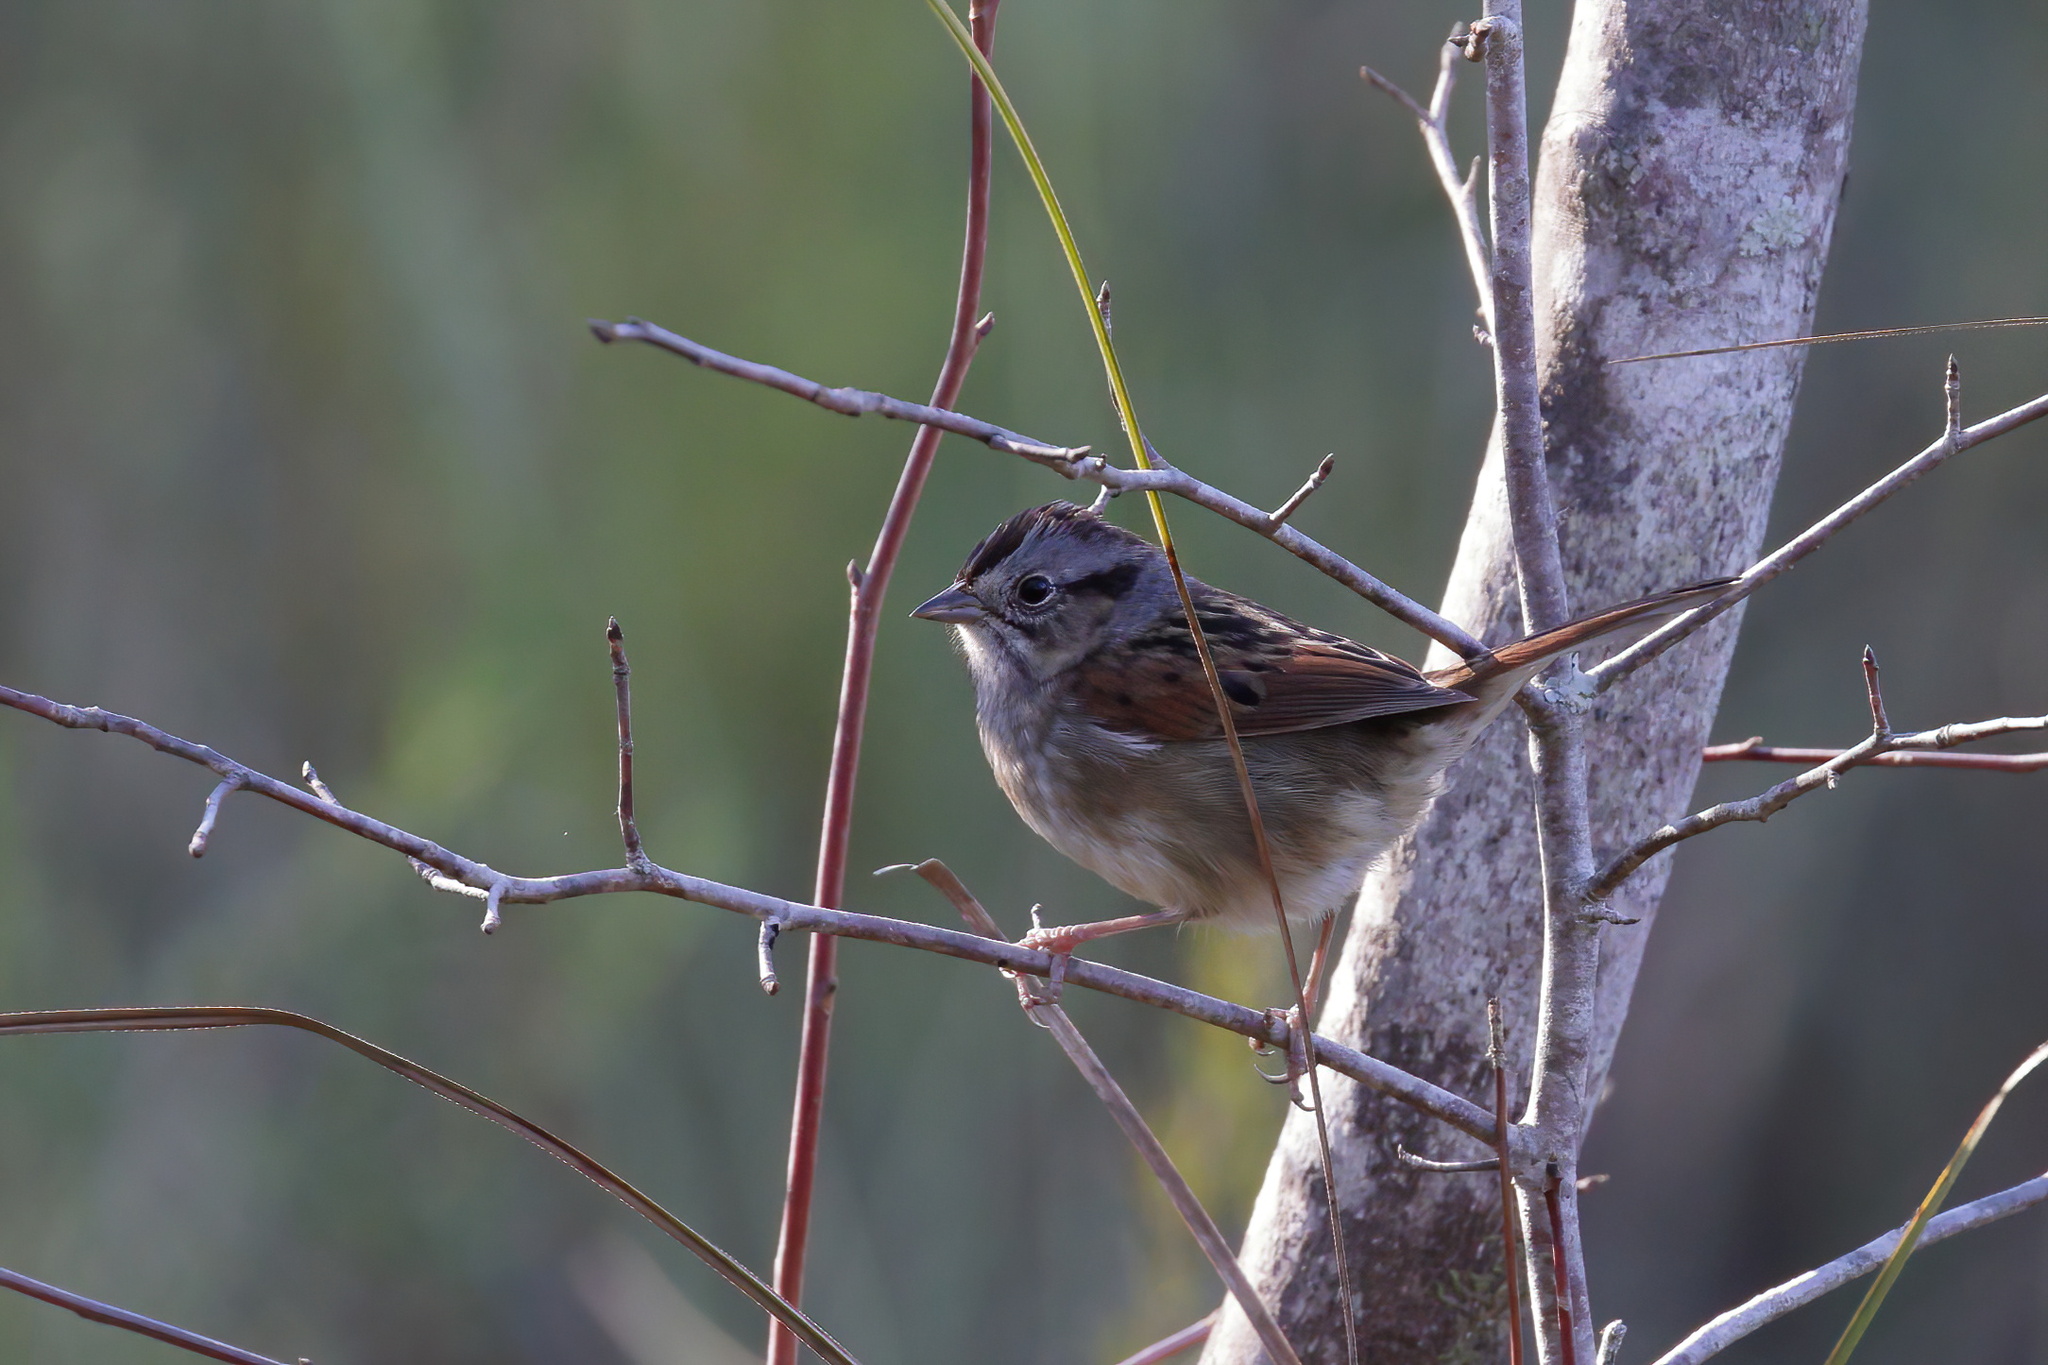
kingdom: Animalia
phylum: Chordata
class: Aves
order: Passeriformes
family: Passerellidae
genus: Melospiza
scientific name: Melospiza georgiana
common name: Swamp sparrow
